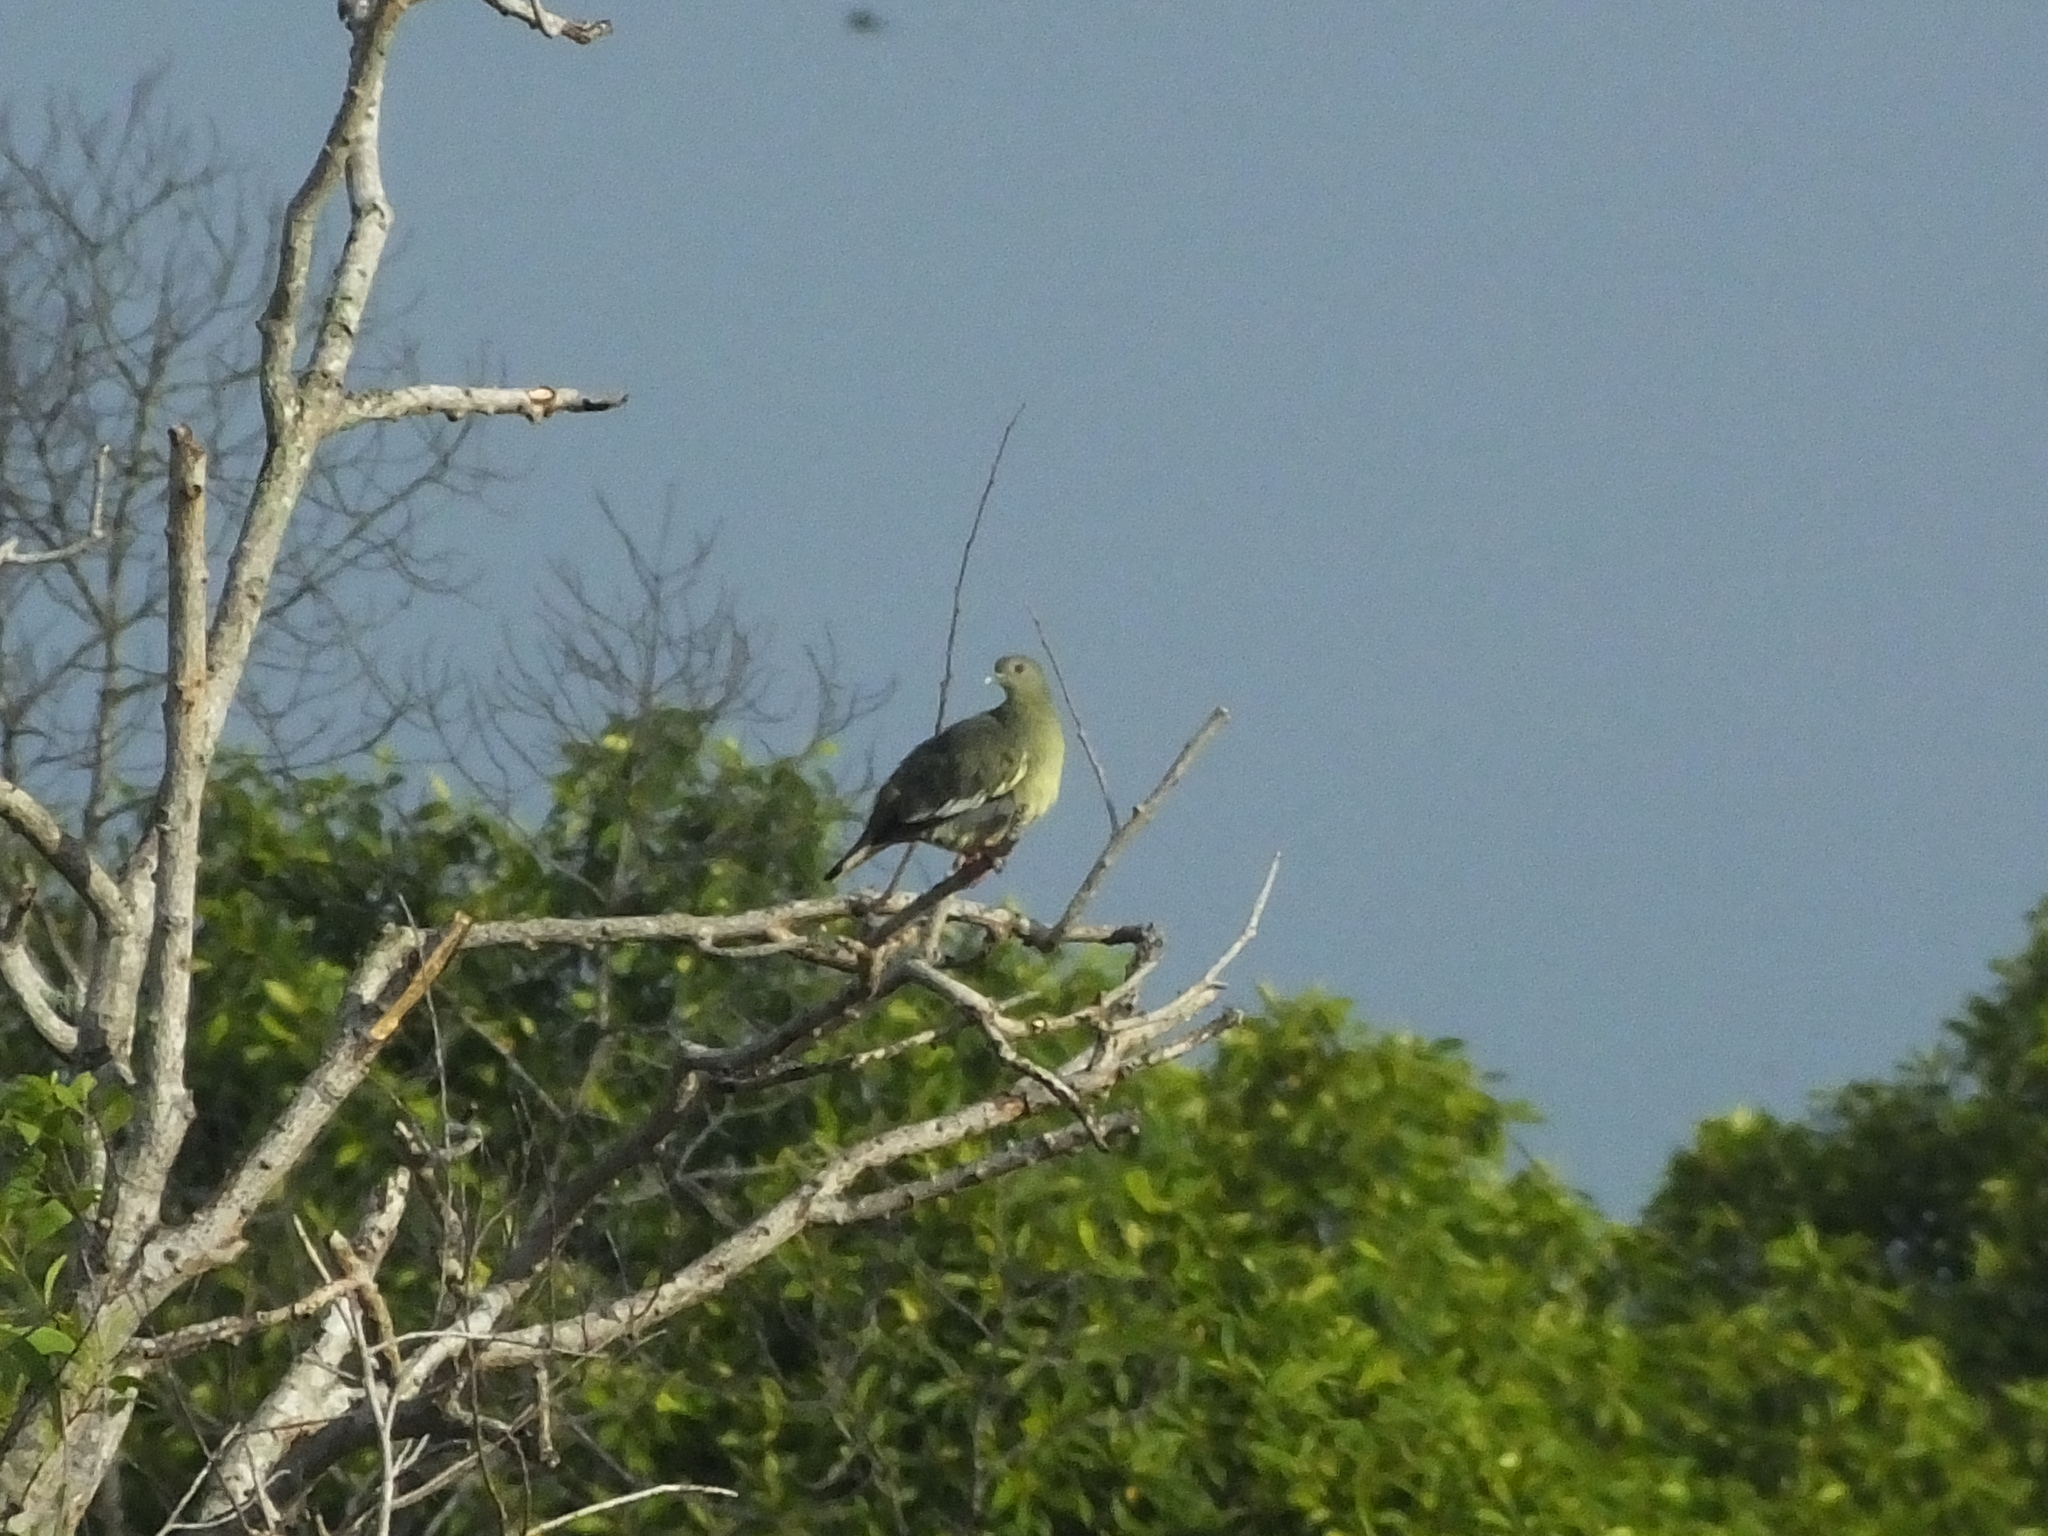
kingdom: Animalia
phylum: Chordata
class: Aves
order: Columbiformes
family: Columbidae
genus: Treron
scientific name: Treron vernans
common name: Pink-necked green pigeon
